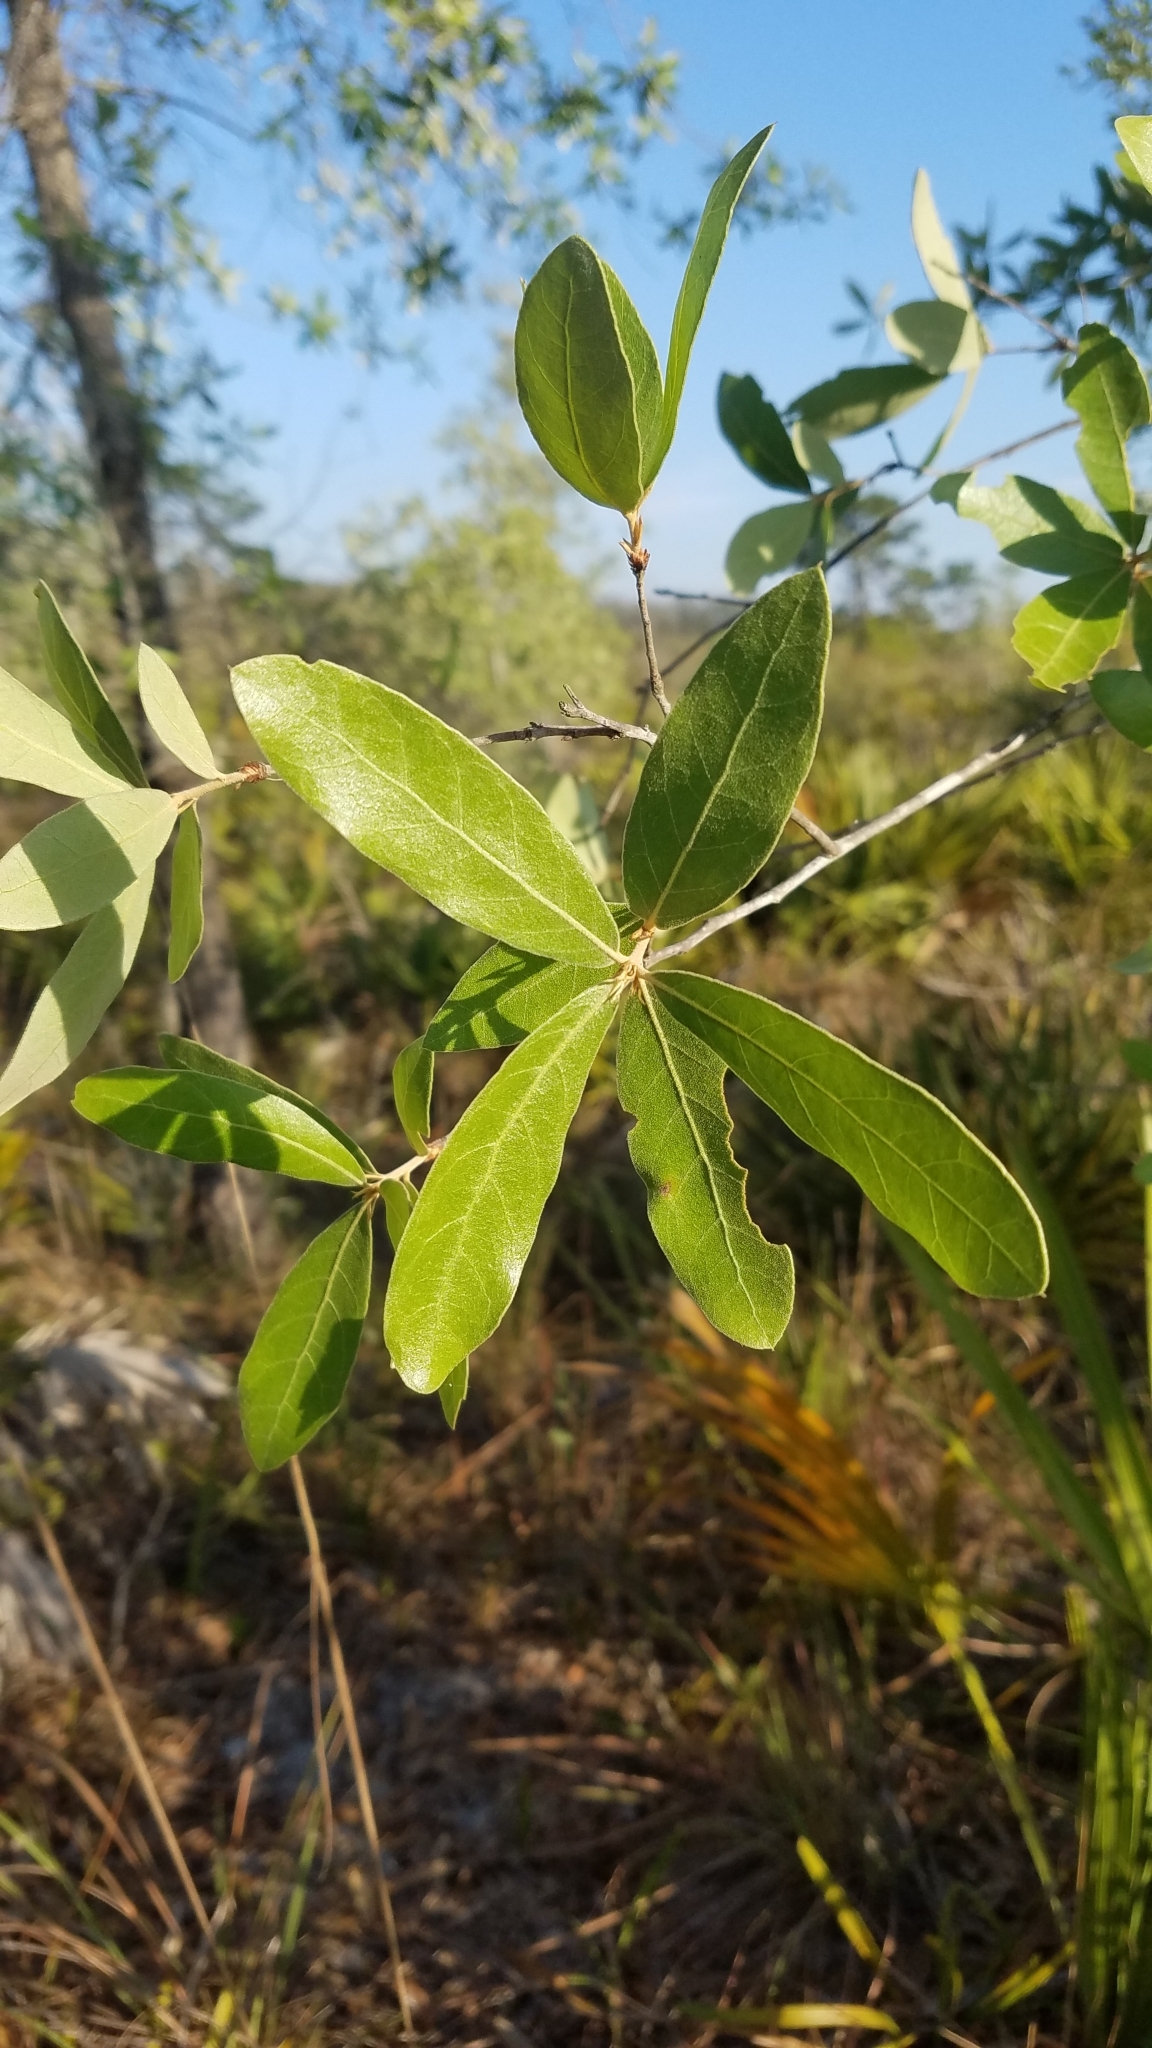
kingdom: Plantae
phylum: Tracheophyta
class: Magnoliopsida
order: Fagales
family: Fagaceae
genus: Quercus
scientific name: Quercus incana
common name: Bluejack oak
